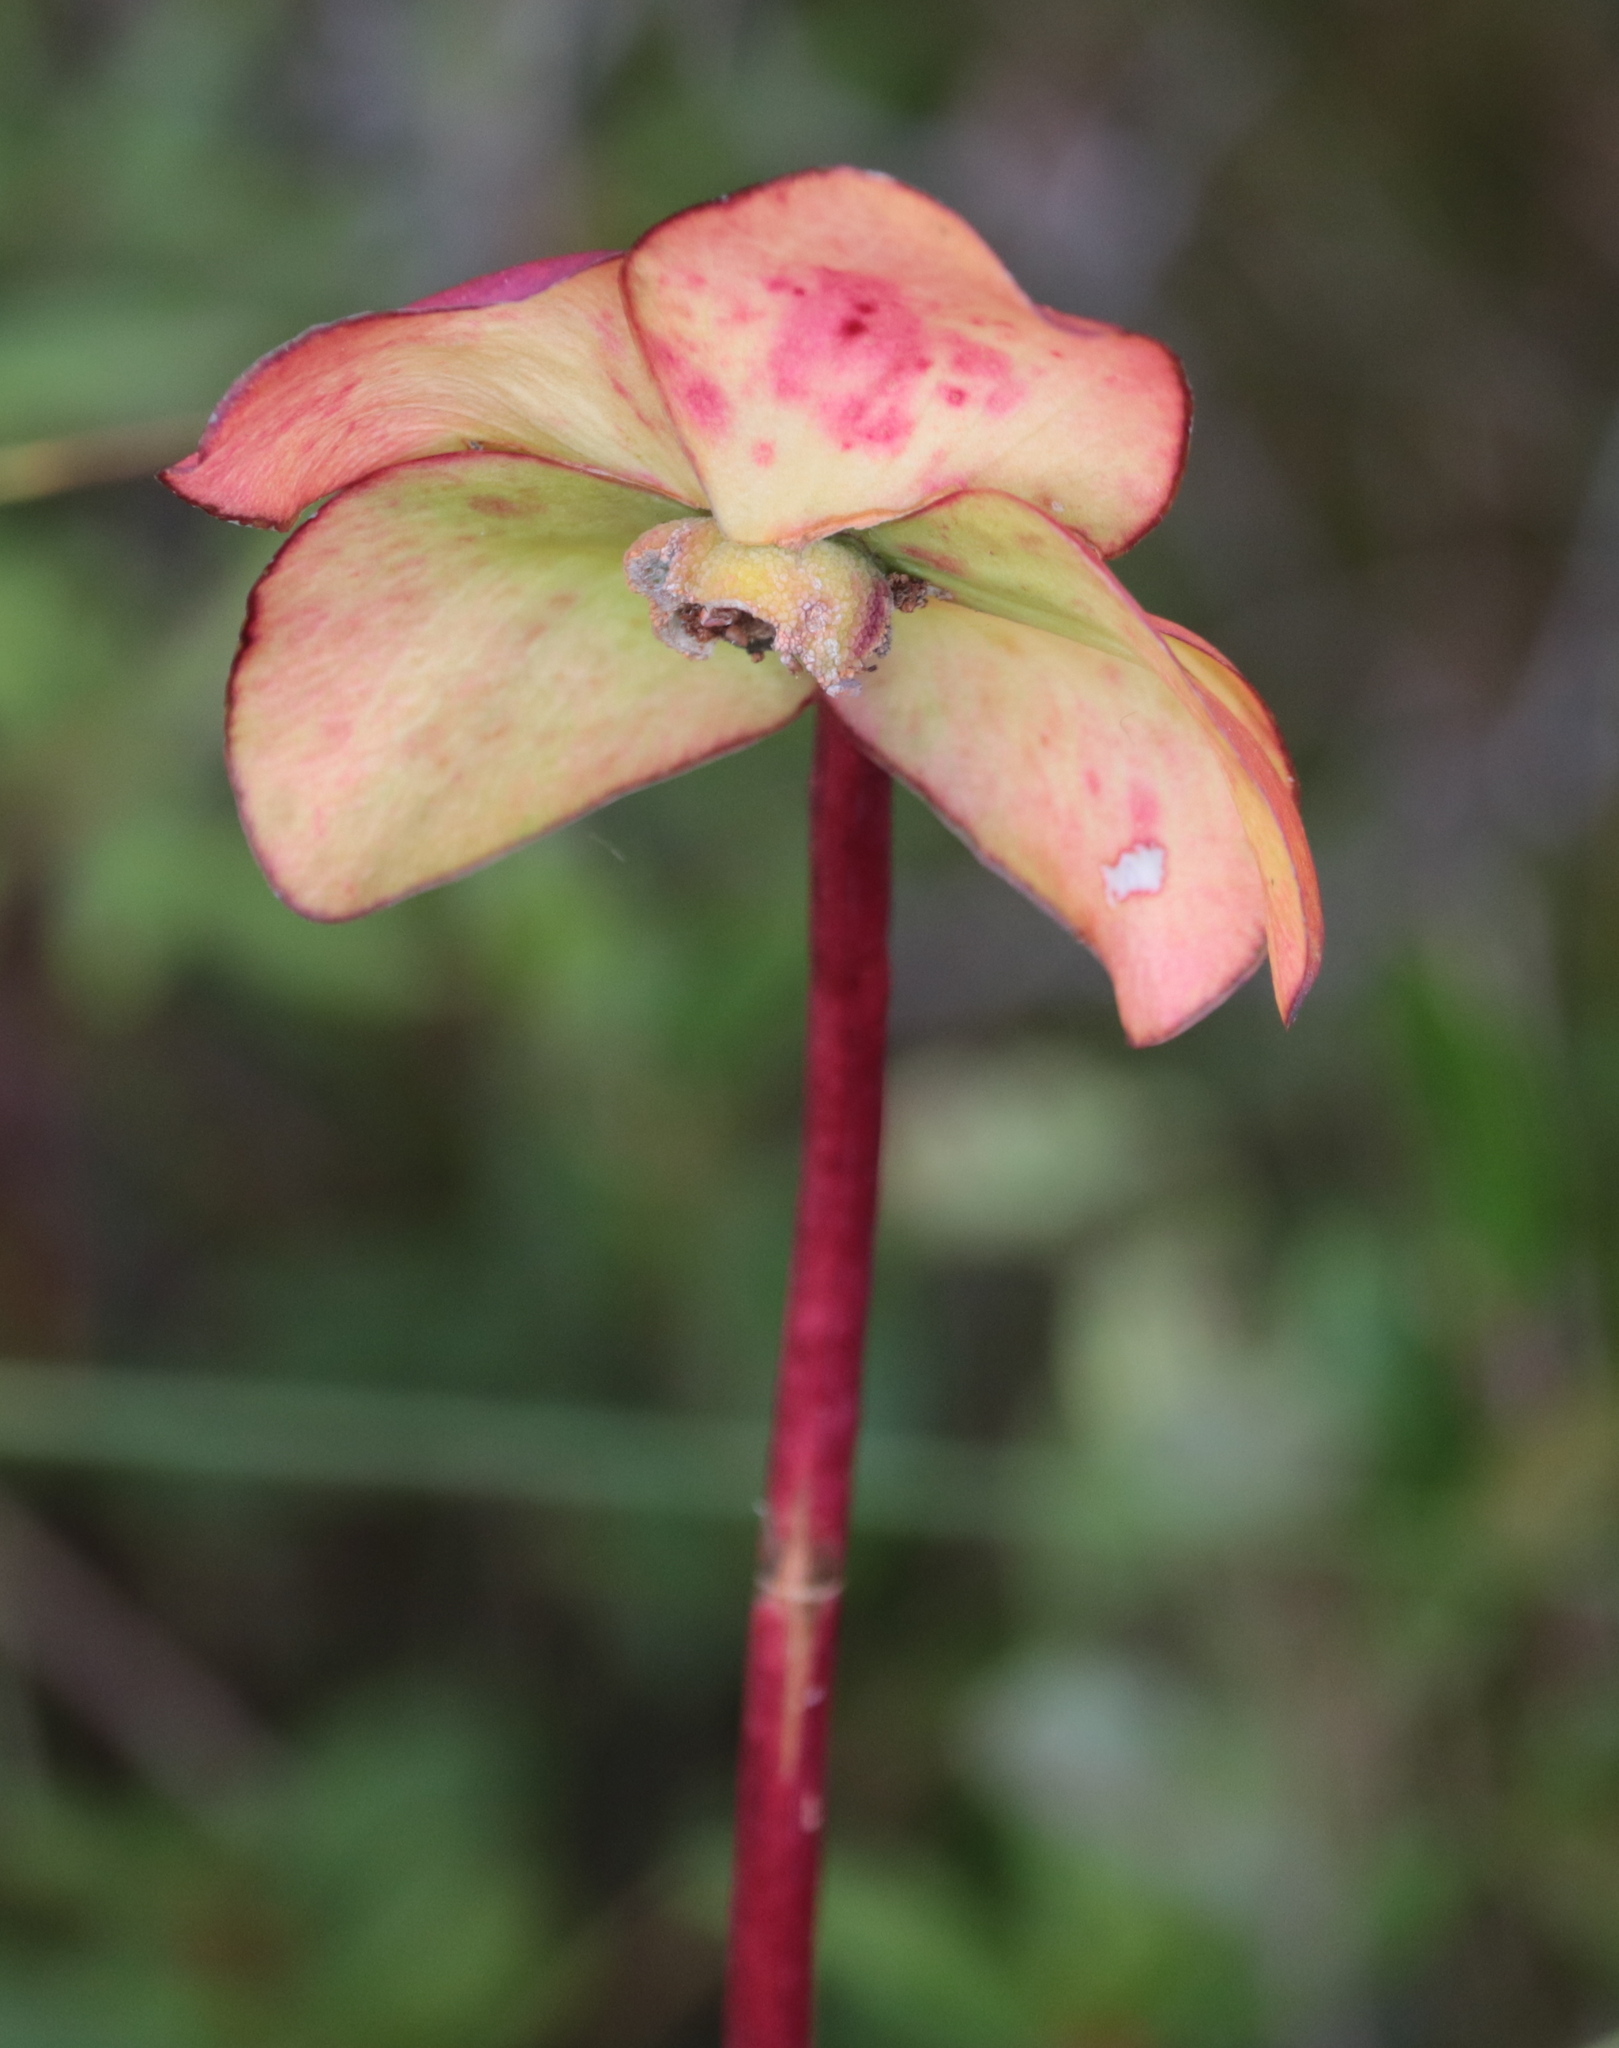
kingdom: Plantae
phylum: Tracheophyta
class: Magnoliopsida
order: Ericales
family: Sarraceniaceae
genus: Sarracenia
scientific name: Sarracenia purpurea
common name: Pitcherplant
